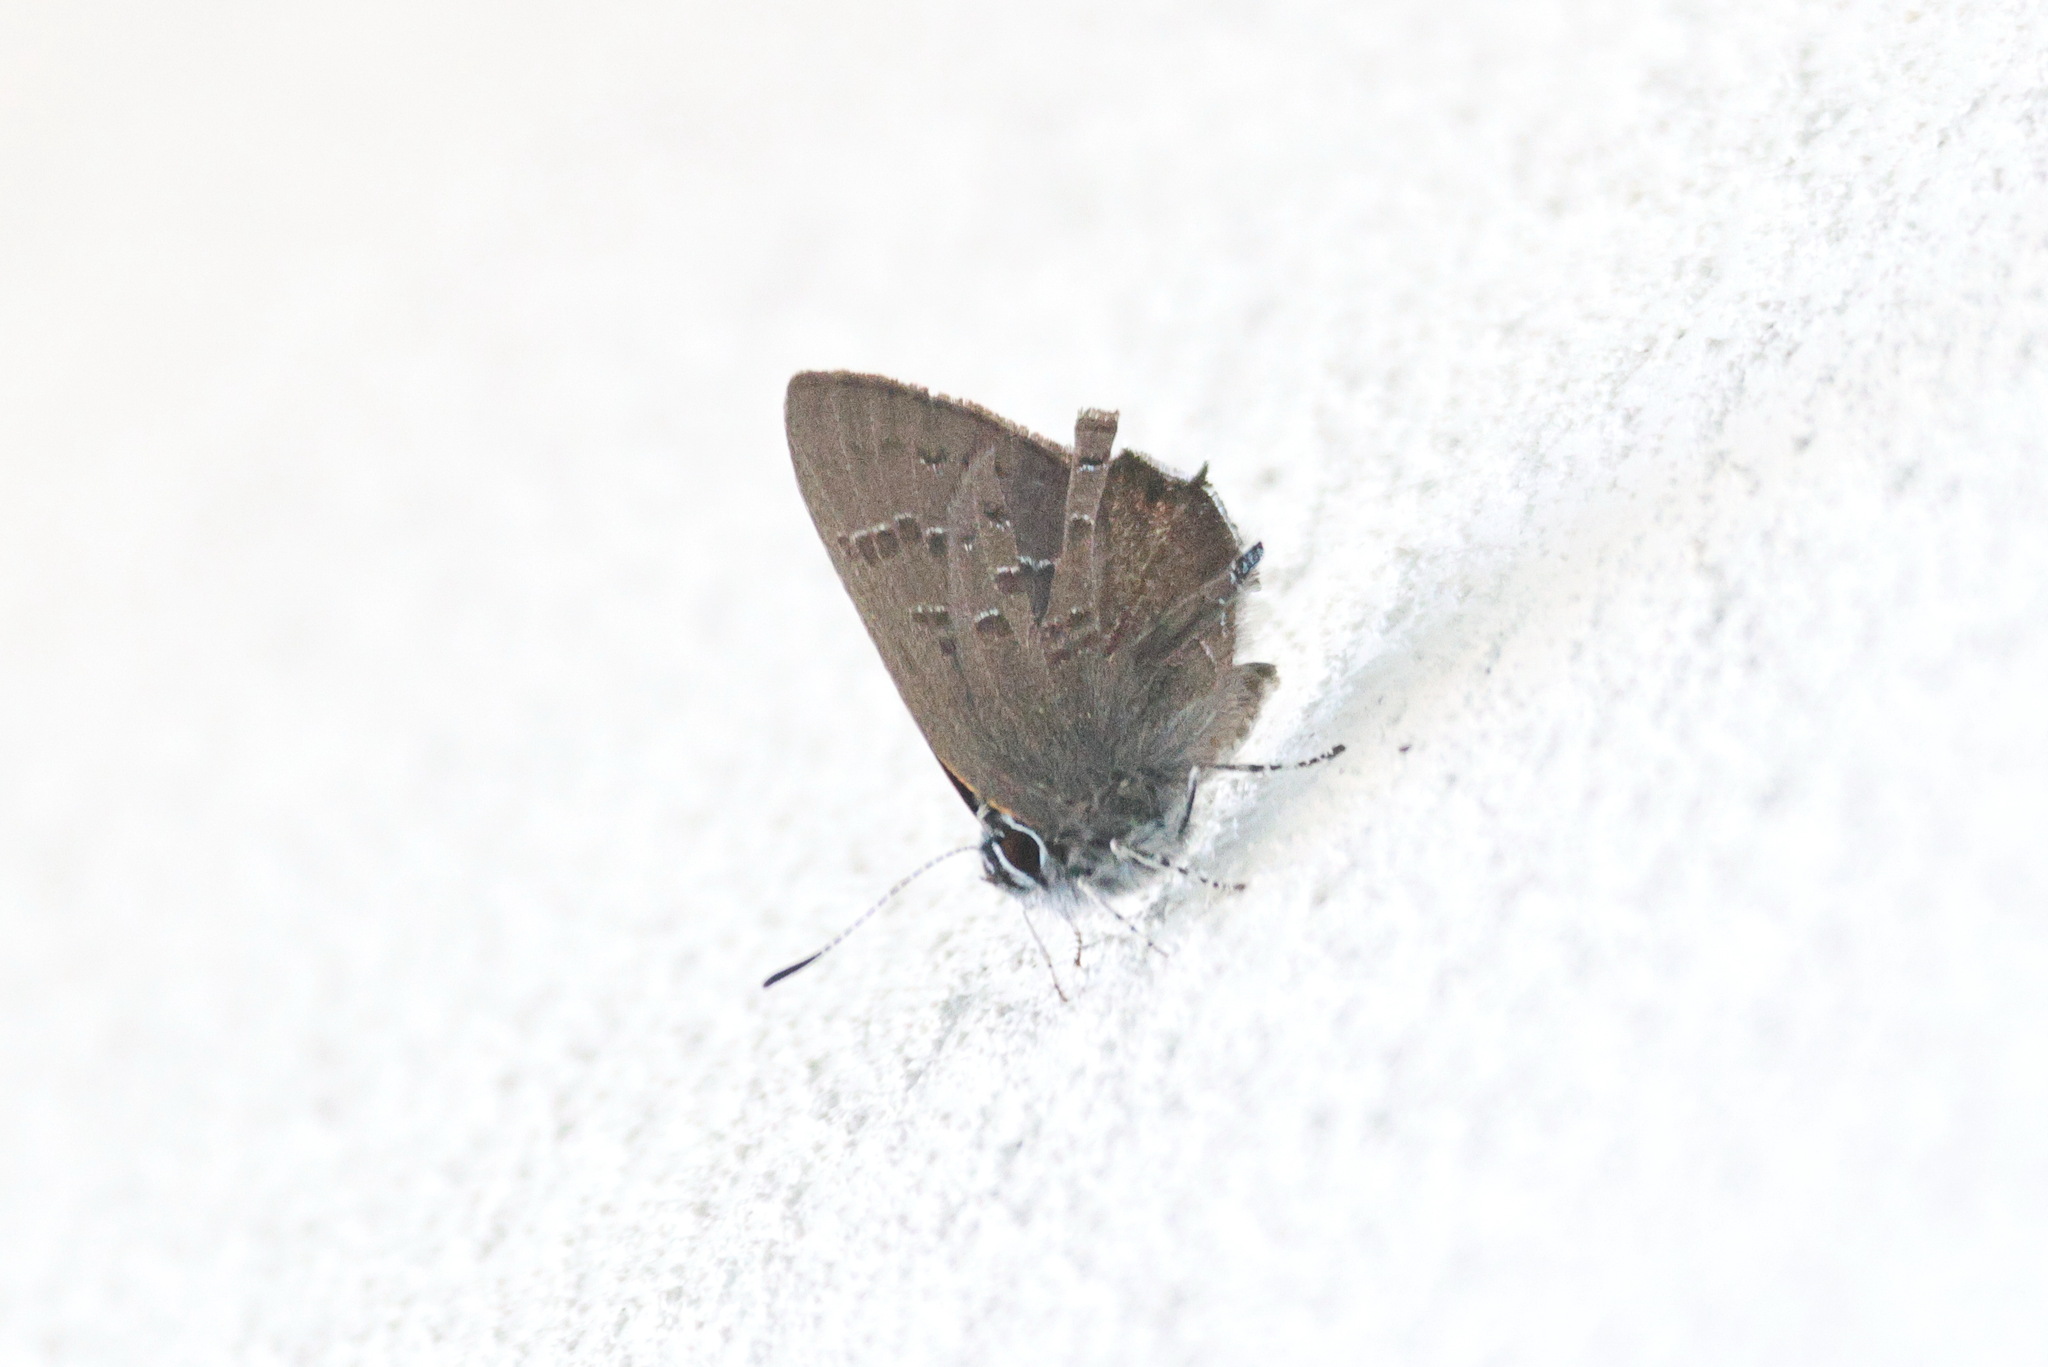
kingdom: Animalia
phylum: Arthropoda
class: Insecta
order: Lepidoptera
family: Lycaenidae
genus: Satyrium
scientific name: Satyrium calanus
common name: Banded hairstreak
